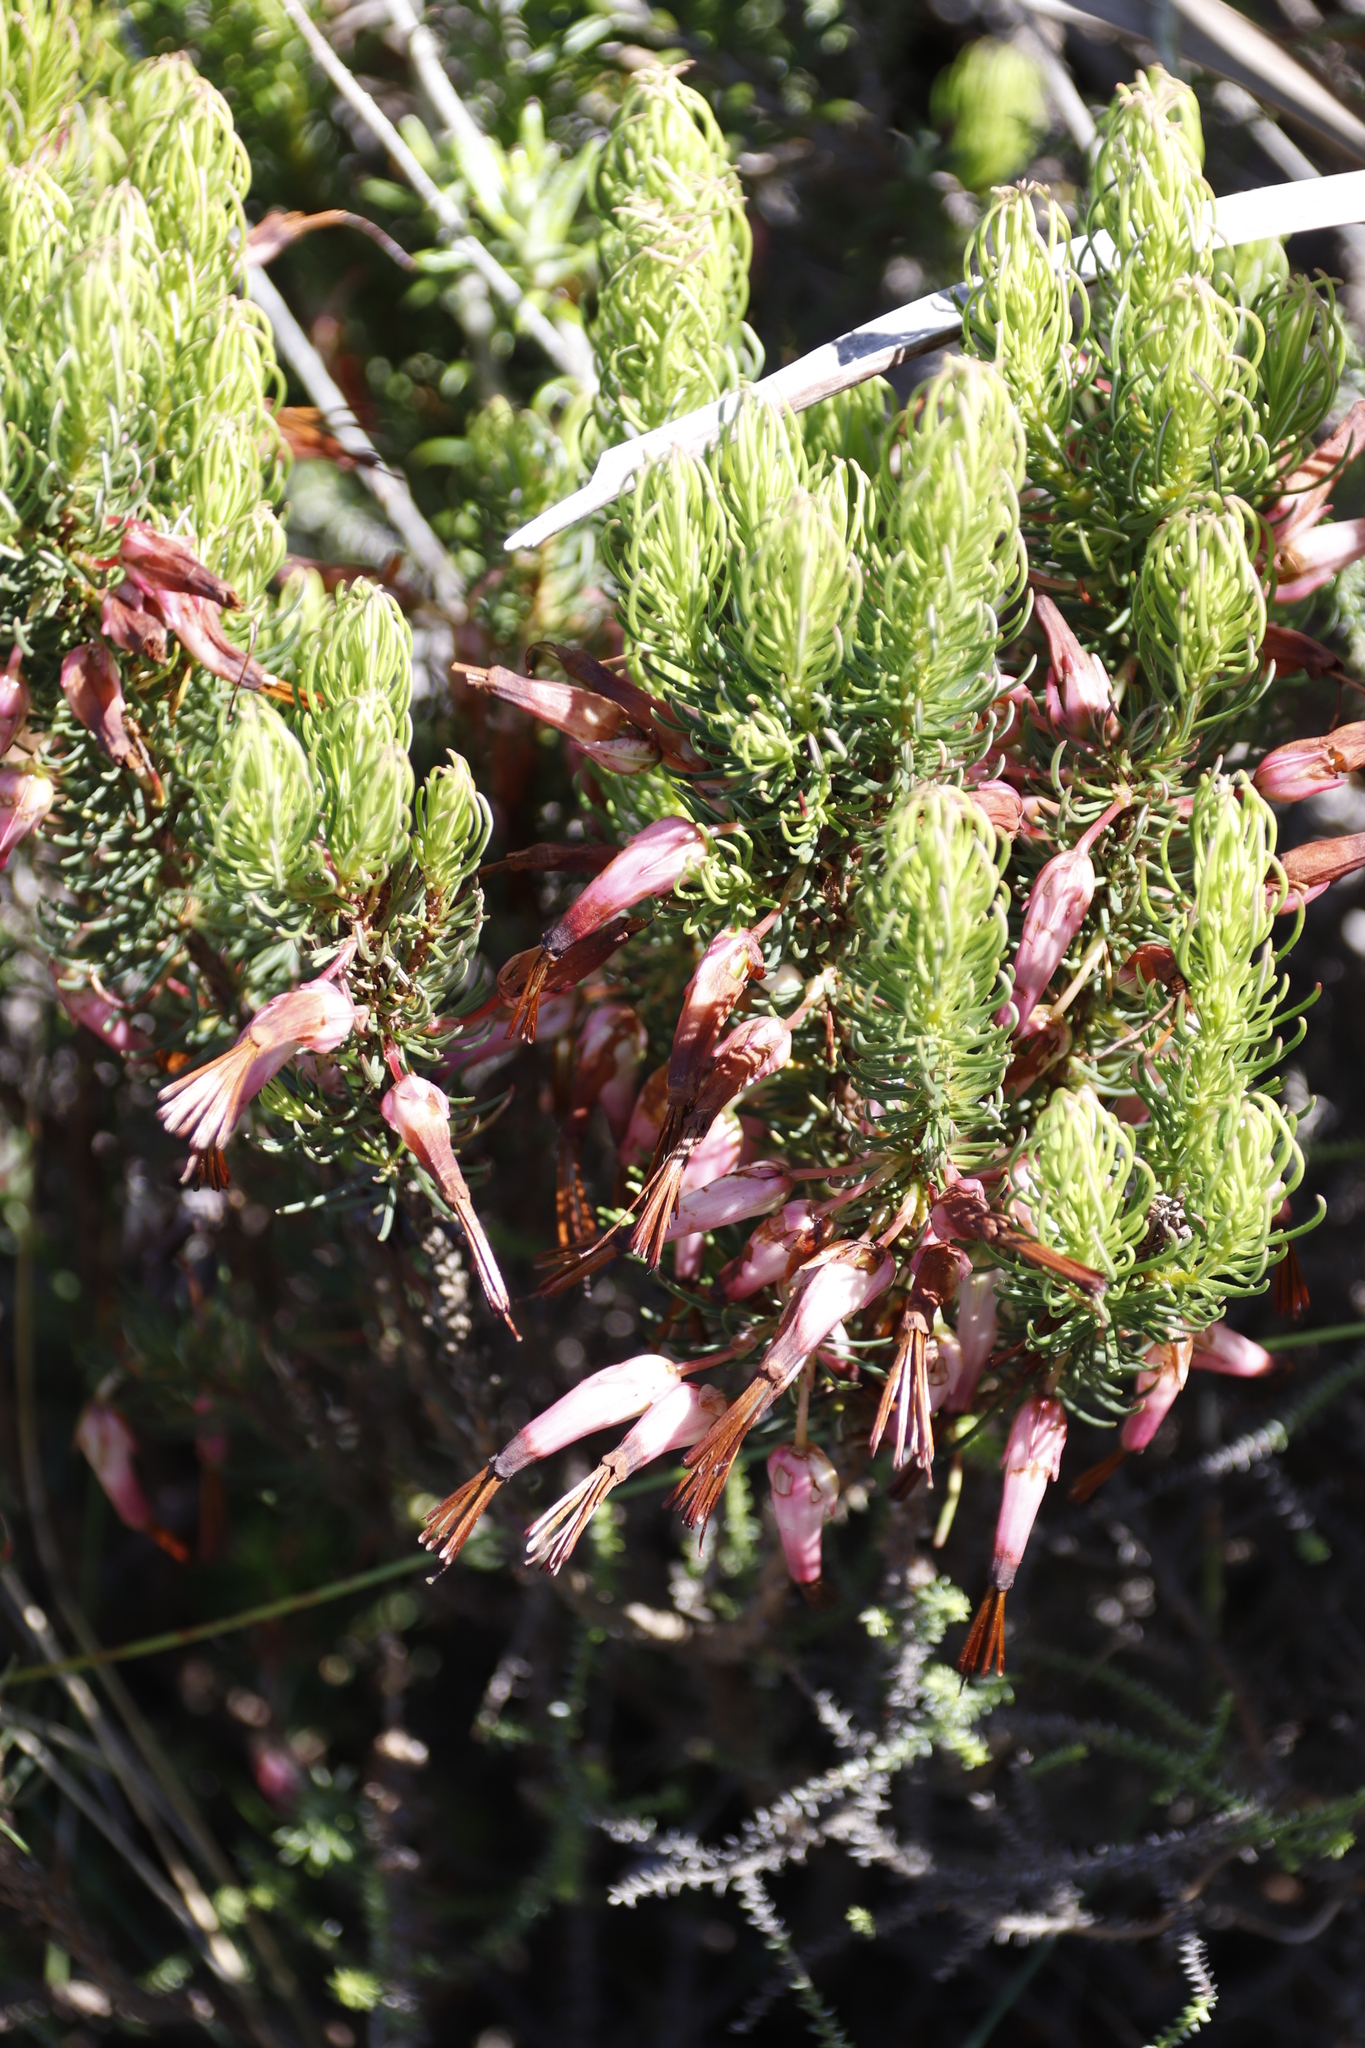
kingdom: Plantae
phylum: Tracheophyta
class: Magnoliopsida
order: Ericales
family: Ericaceae
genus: Erica
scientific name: Erica plukenetii
